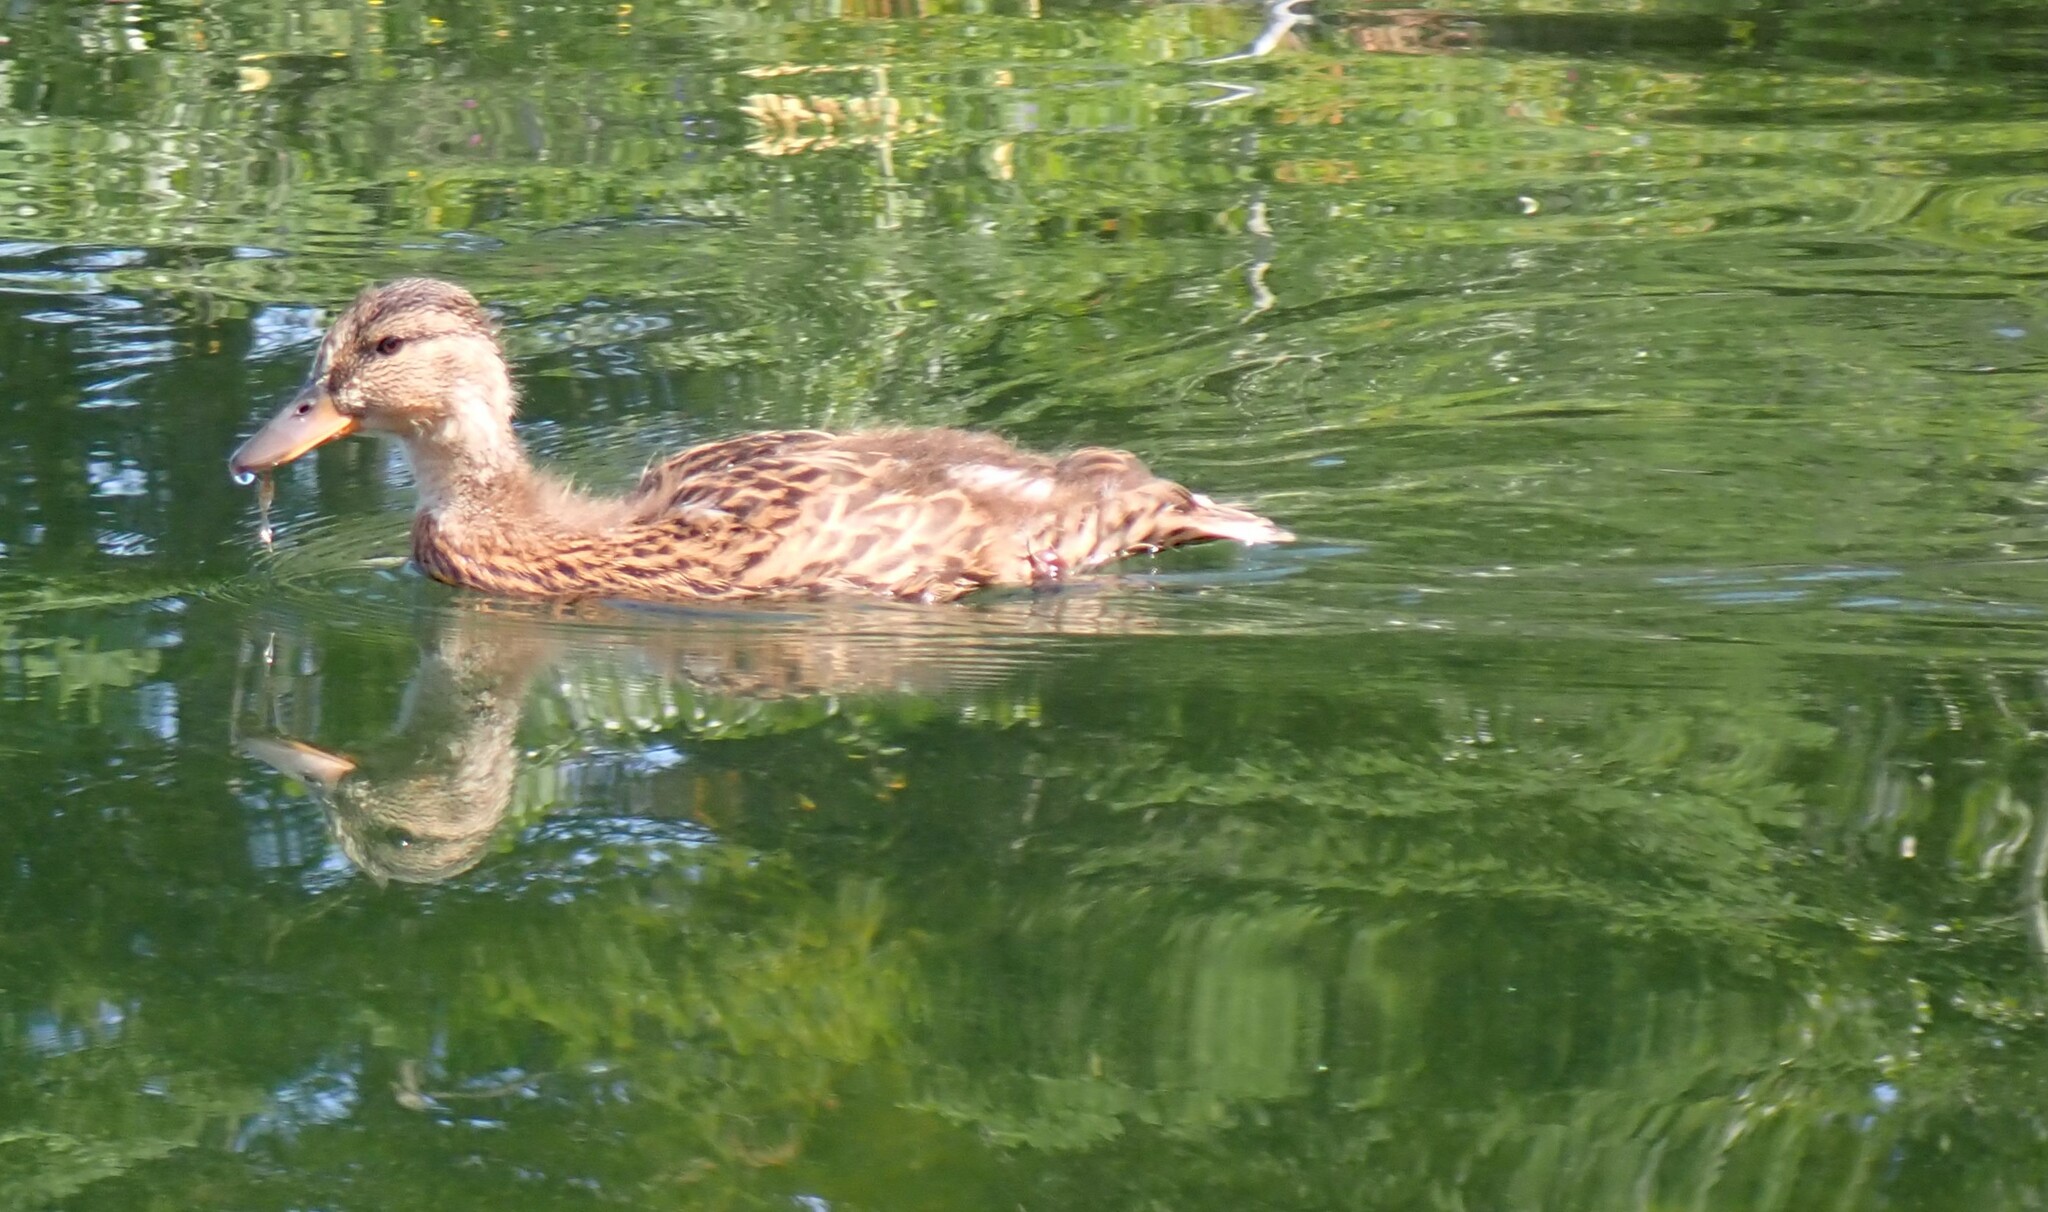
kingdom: Animalia
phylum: Chordata
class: Aves
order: Anseriformes
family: Anatidae
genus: Anas
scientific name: Anas platyrhynchos
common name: Mallard
